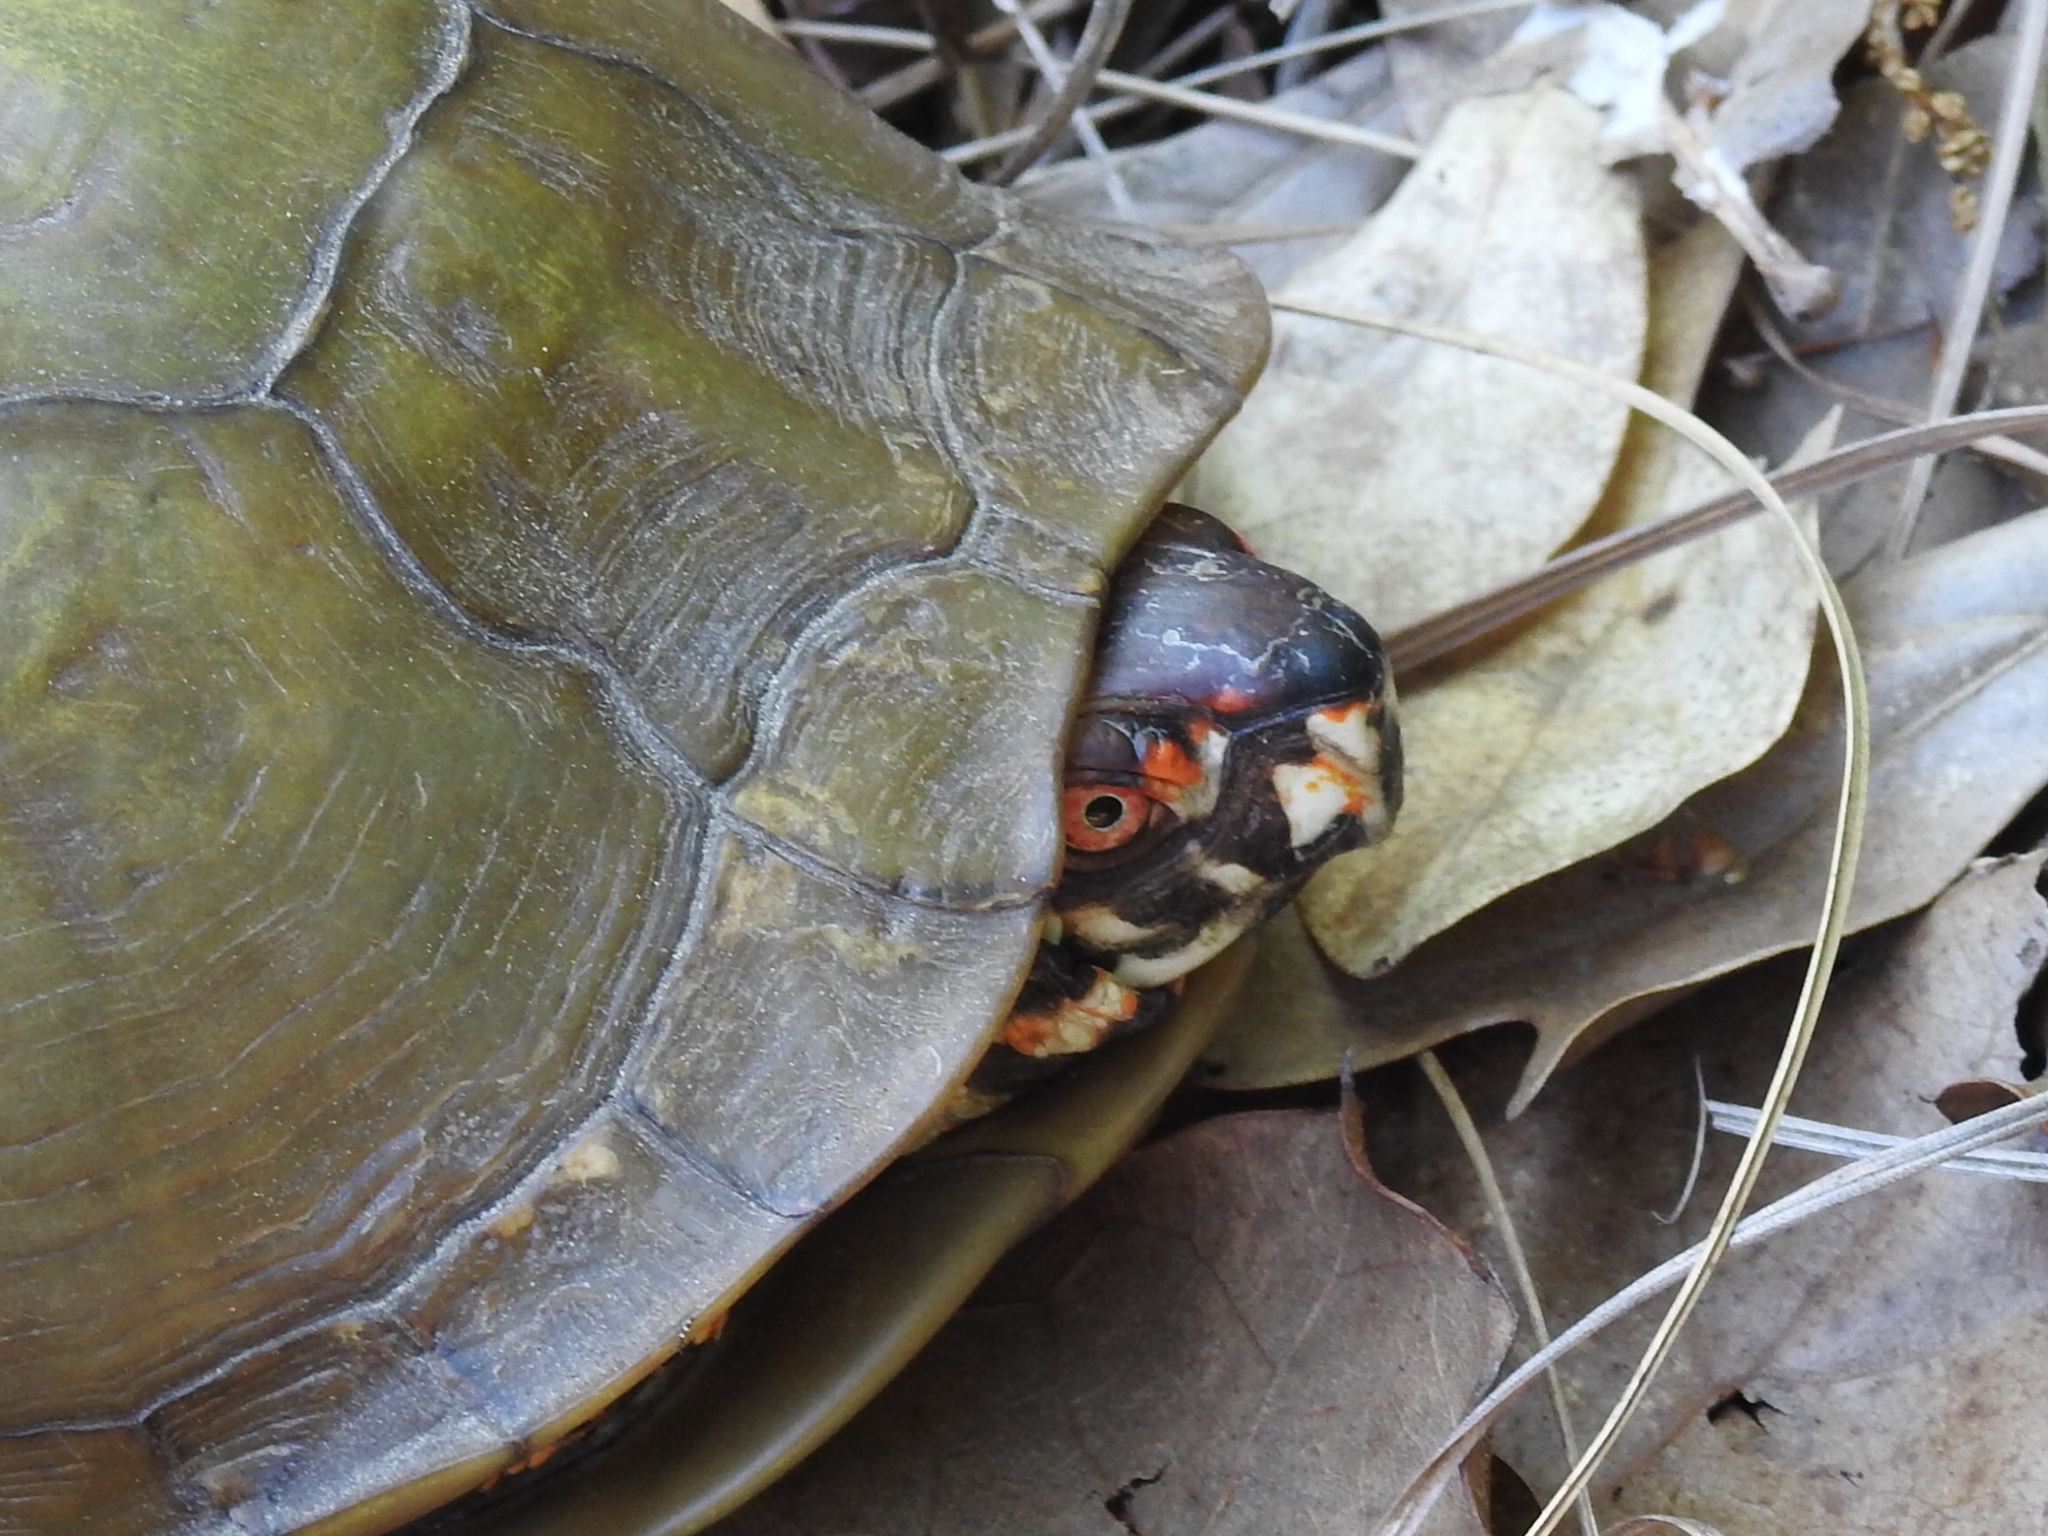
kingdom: Animalia
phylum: Chordata
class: Testudines
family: Emydidae
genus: Terrapene
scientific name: Terrapene carolina
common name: Common box turtle
